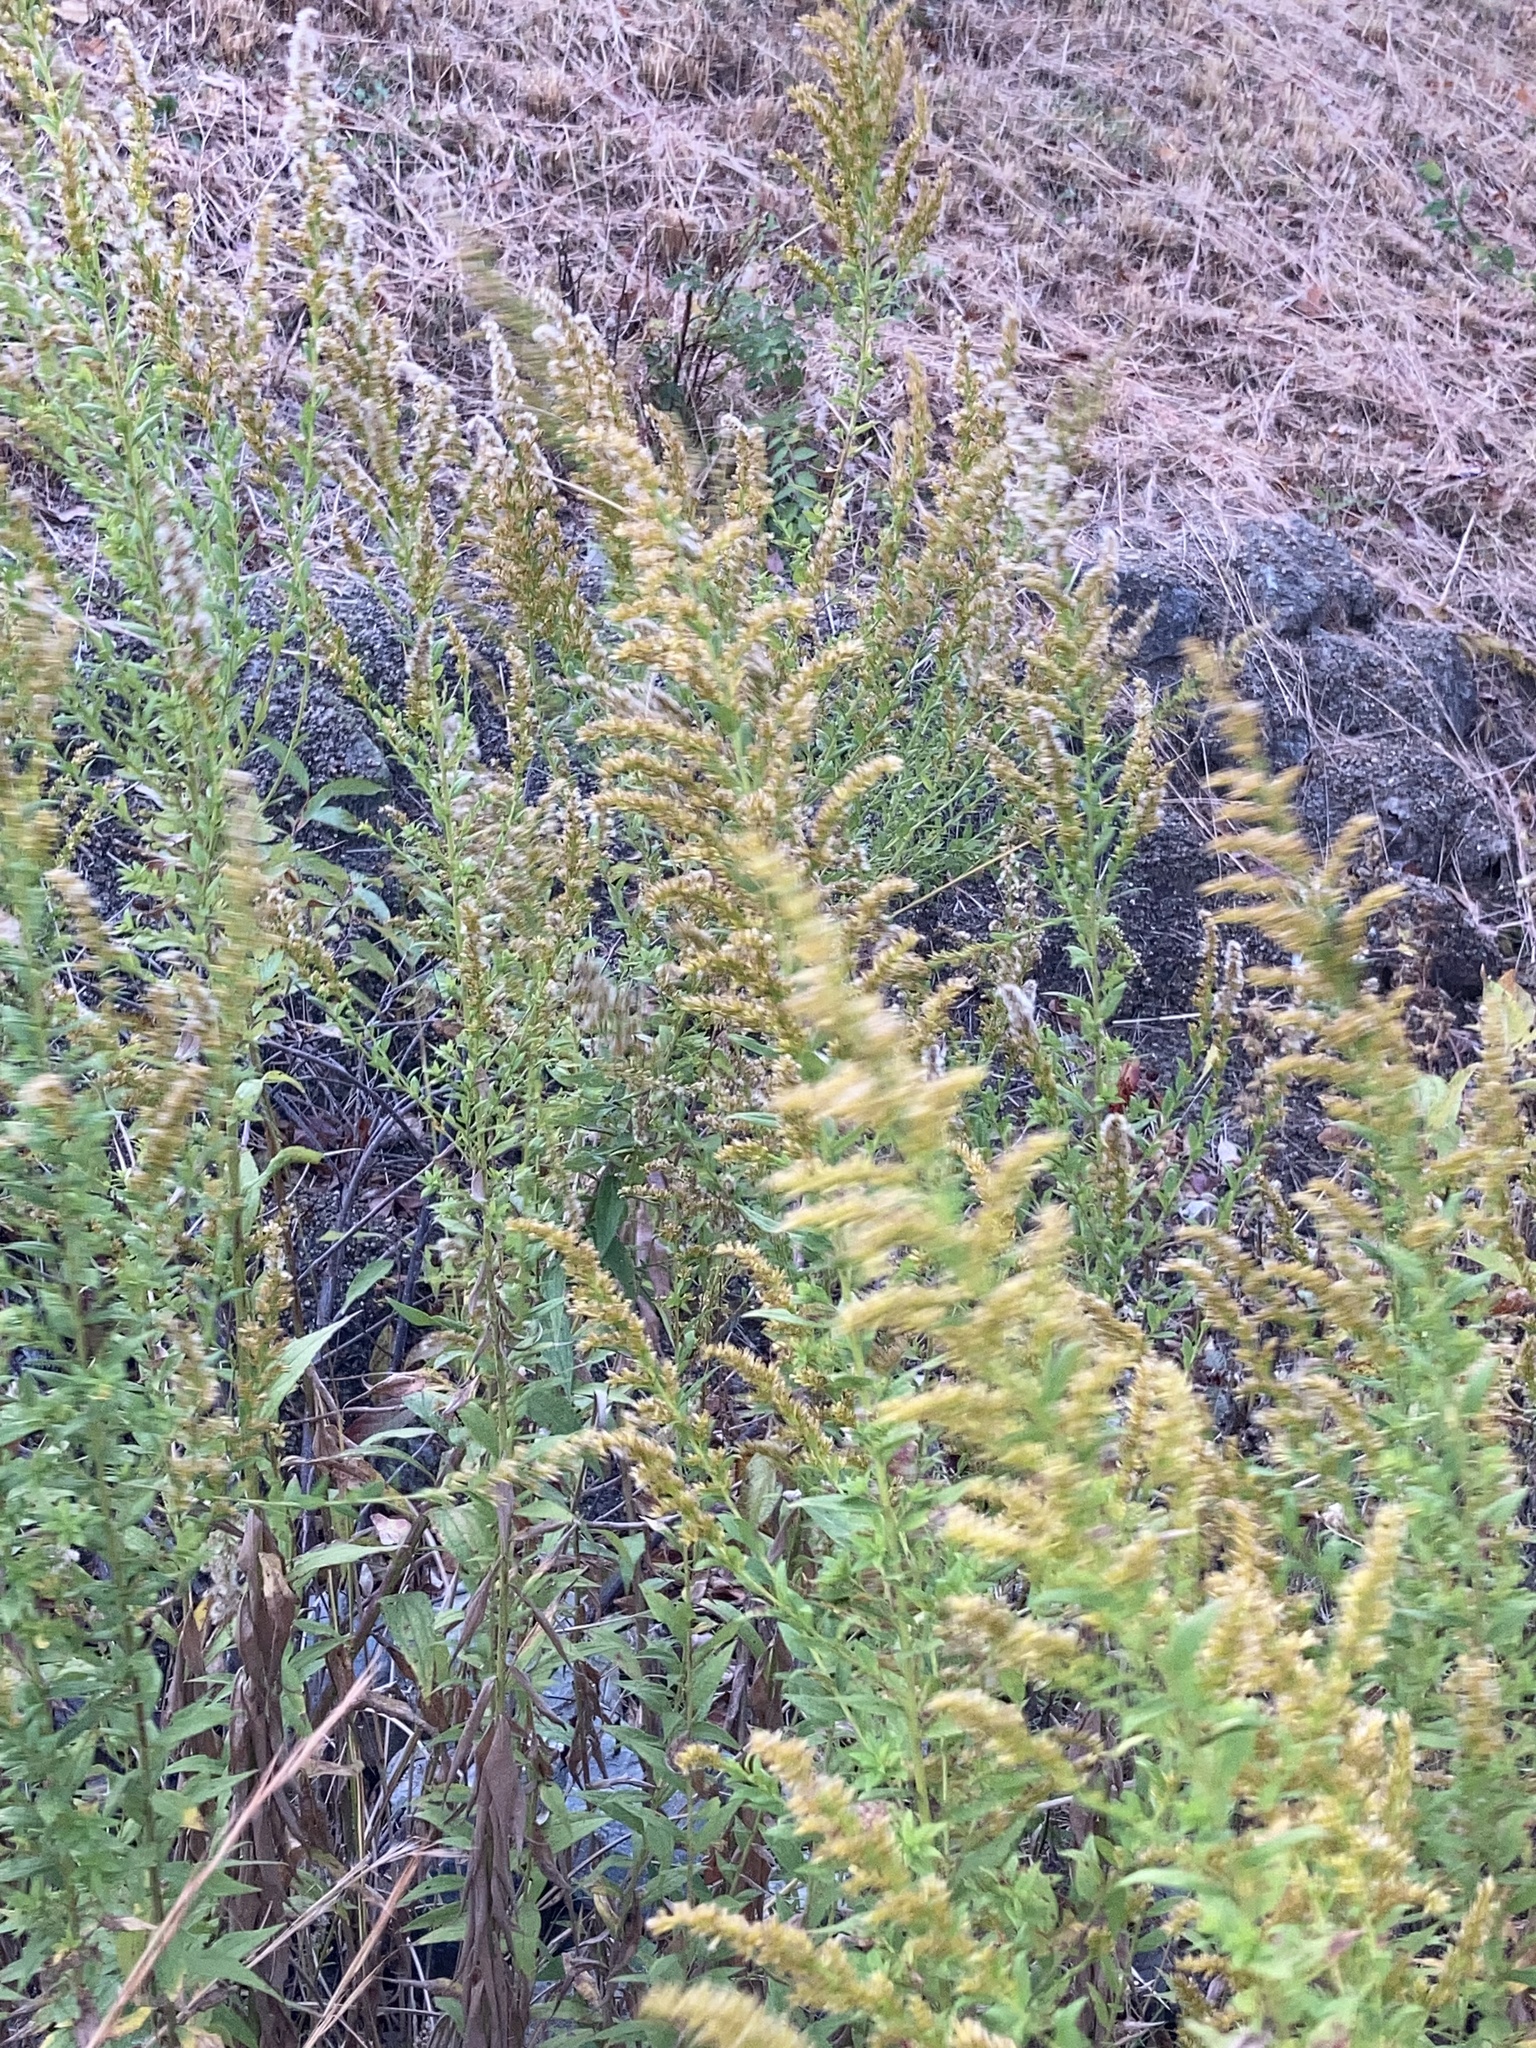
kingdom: Plantae
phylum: Tracheophyta
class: Magnoliopsida
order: Asterales
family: Asteraceae
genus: Solidago
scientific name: Solidago altissima
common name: Late goldenrod
